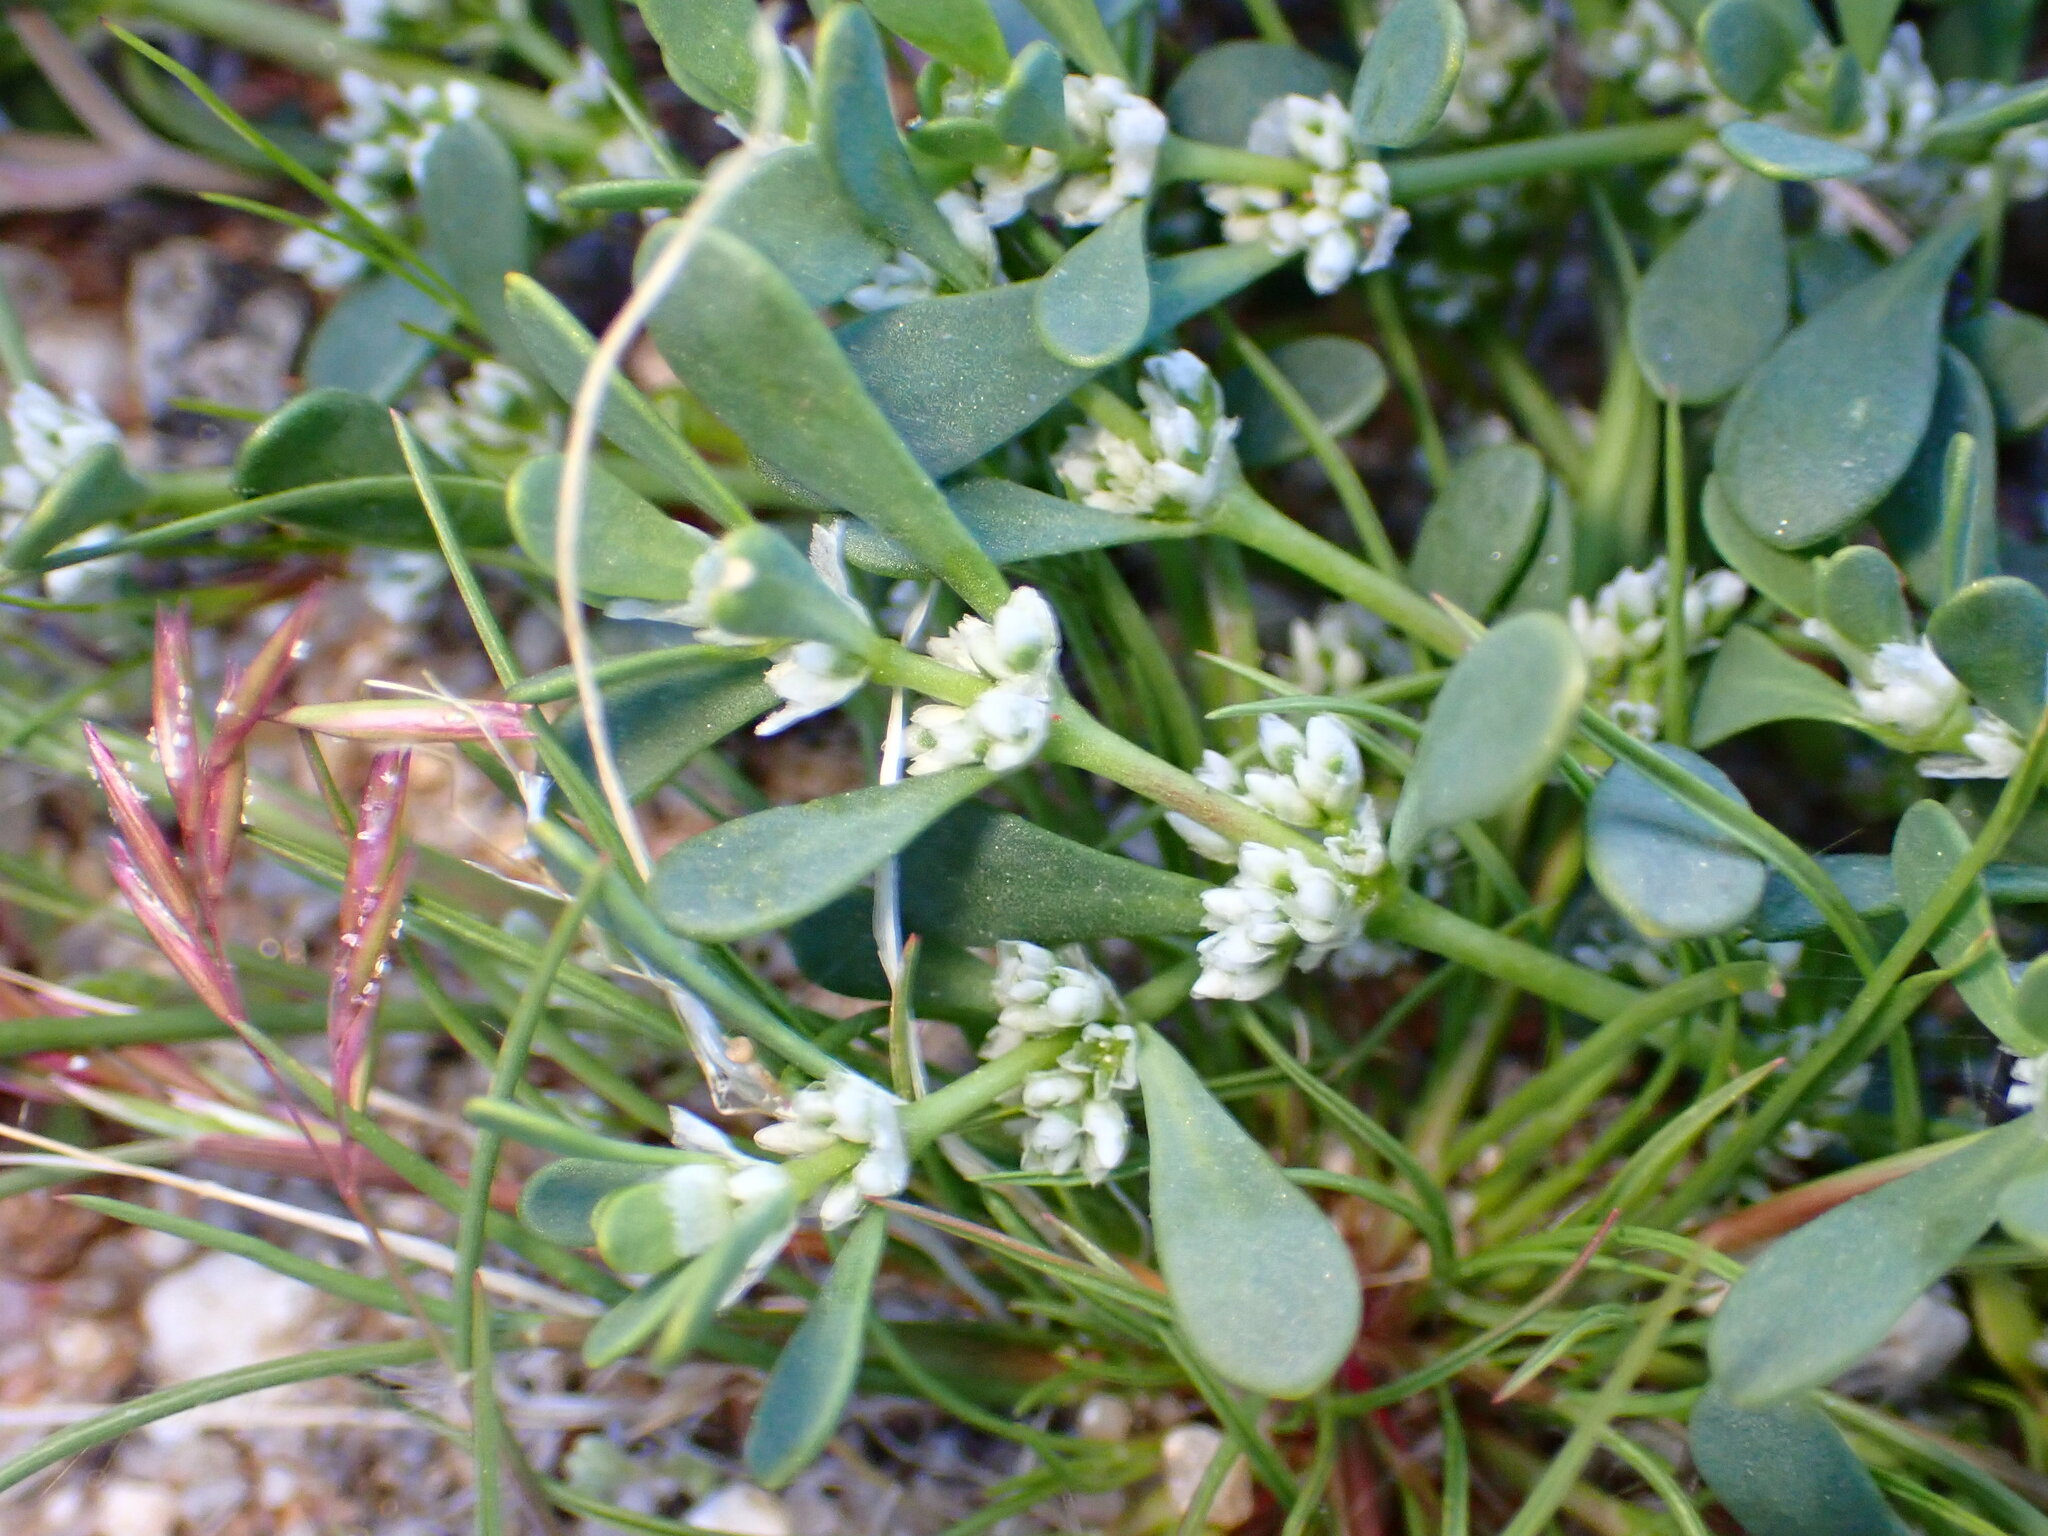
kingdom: Plantae
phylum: Tracheophyta
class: Magnoliopsida
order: Caryophyllales
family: Caryophyllaceae
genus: Achyronychia
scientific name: Achyronychia cooperi
